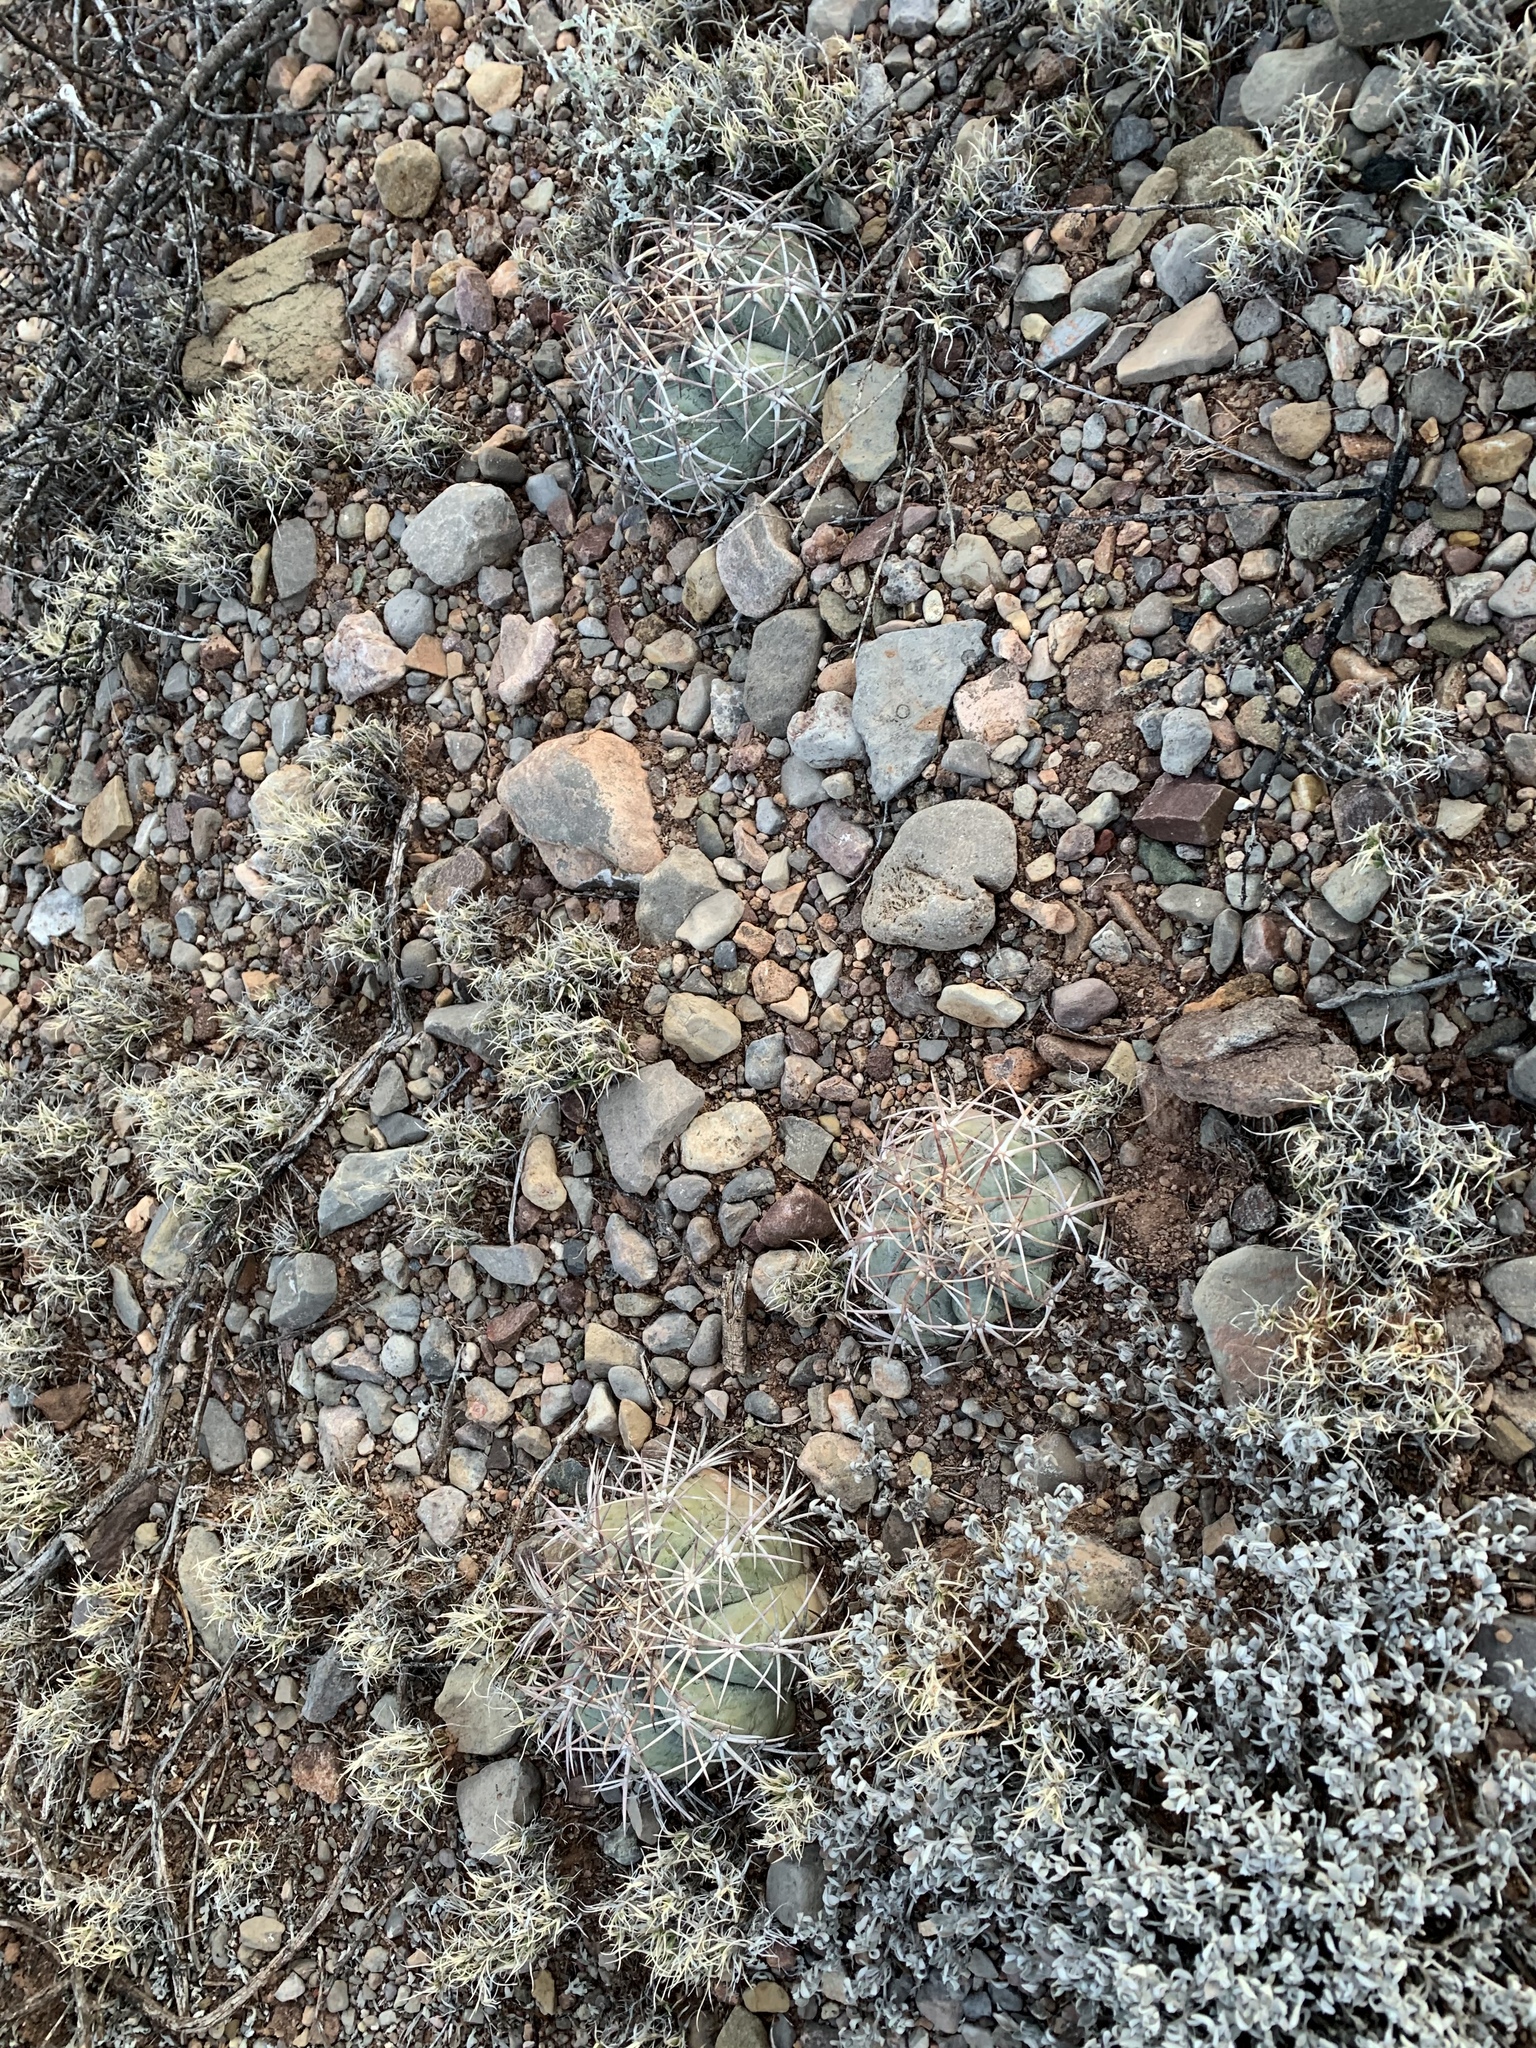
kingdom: Plantae
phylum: Tracheophyta
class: Magnoliopsida
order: Caryophyllales
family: Cactaceae
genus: Echinocactus
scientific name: Echinocactus horizonthalonius
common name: Devilshead
